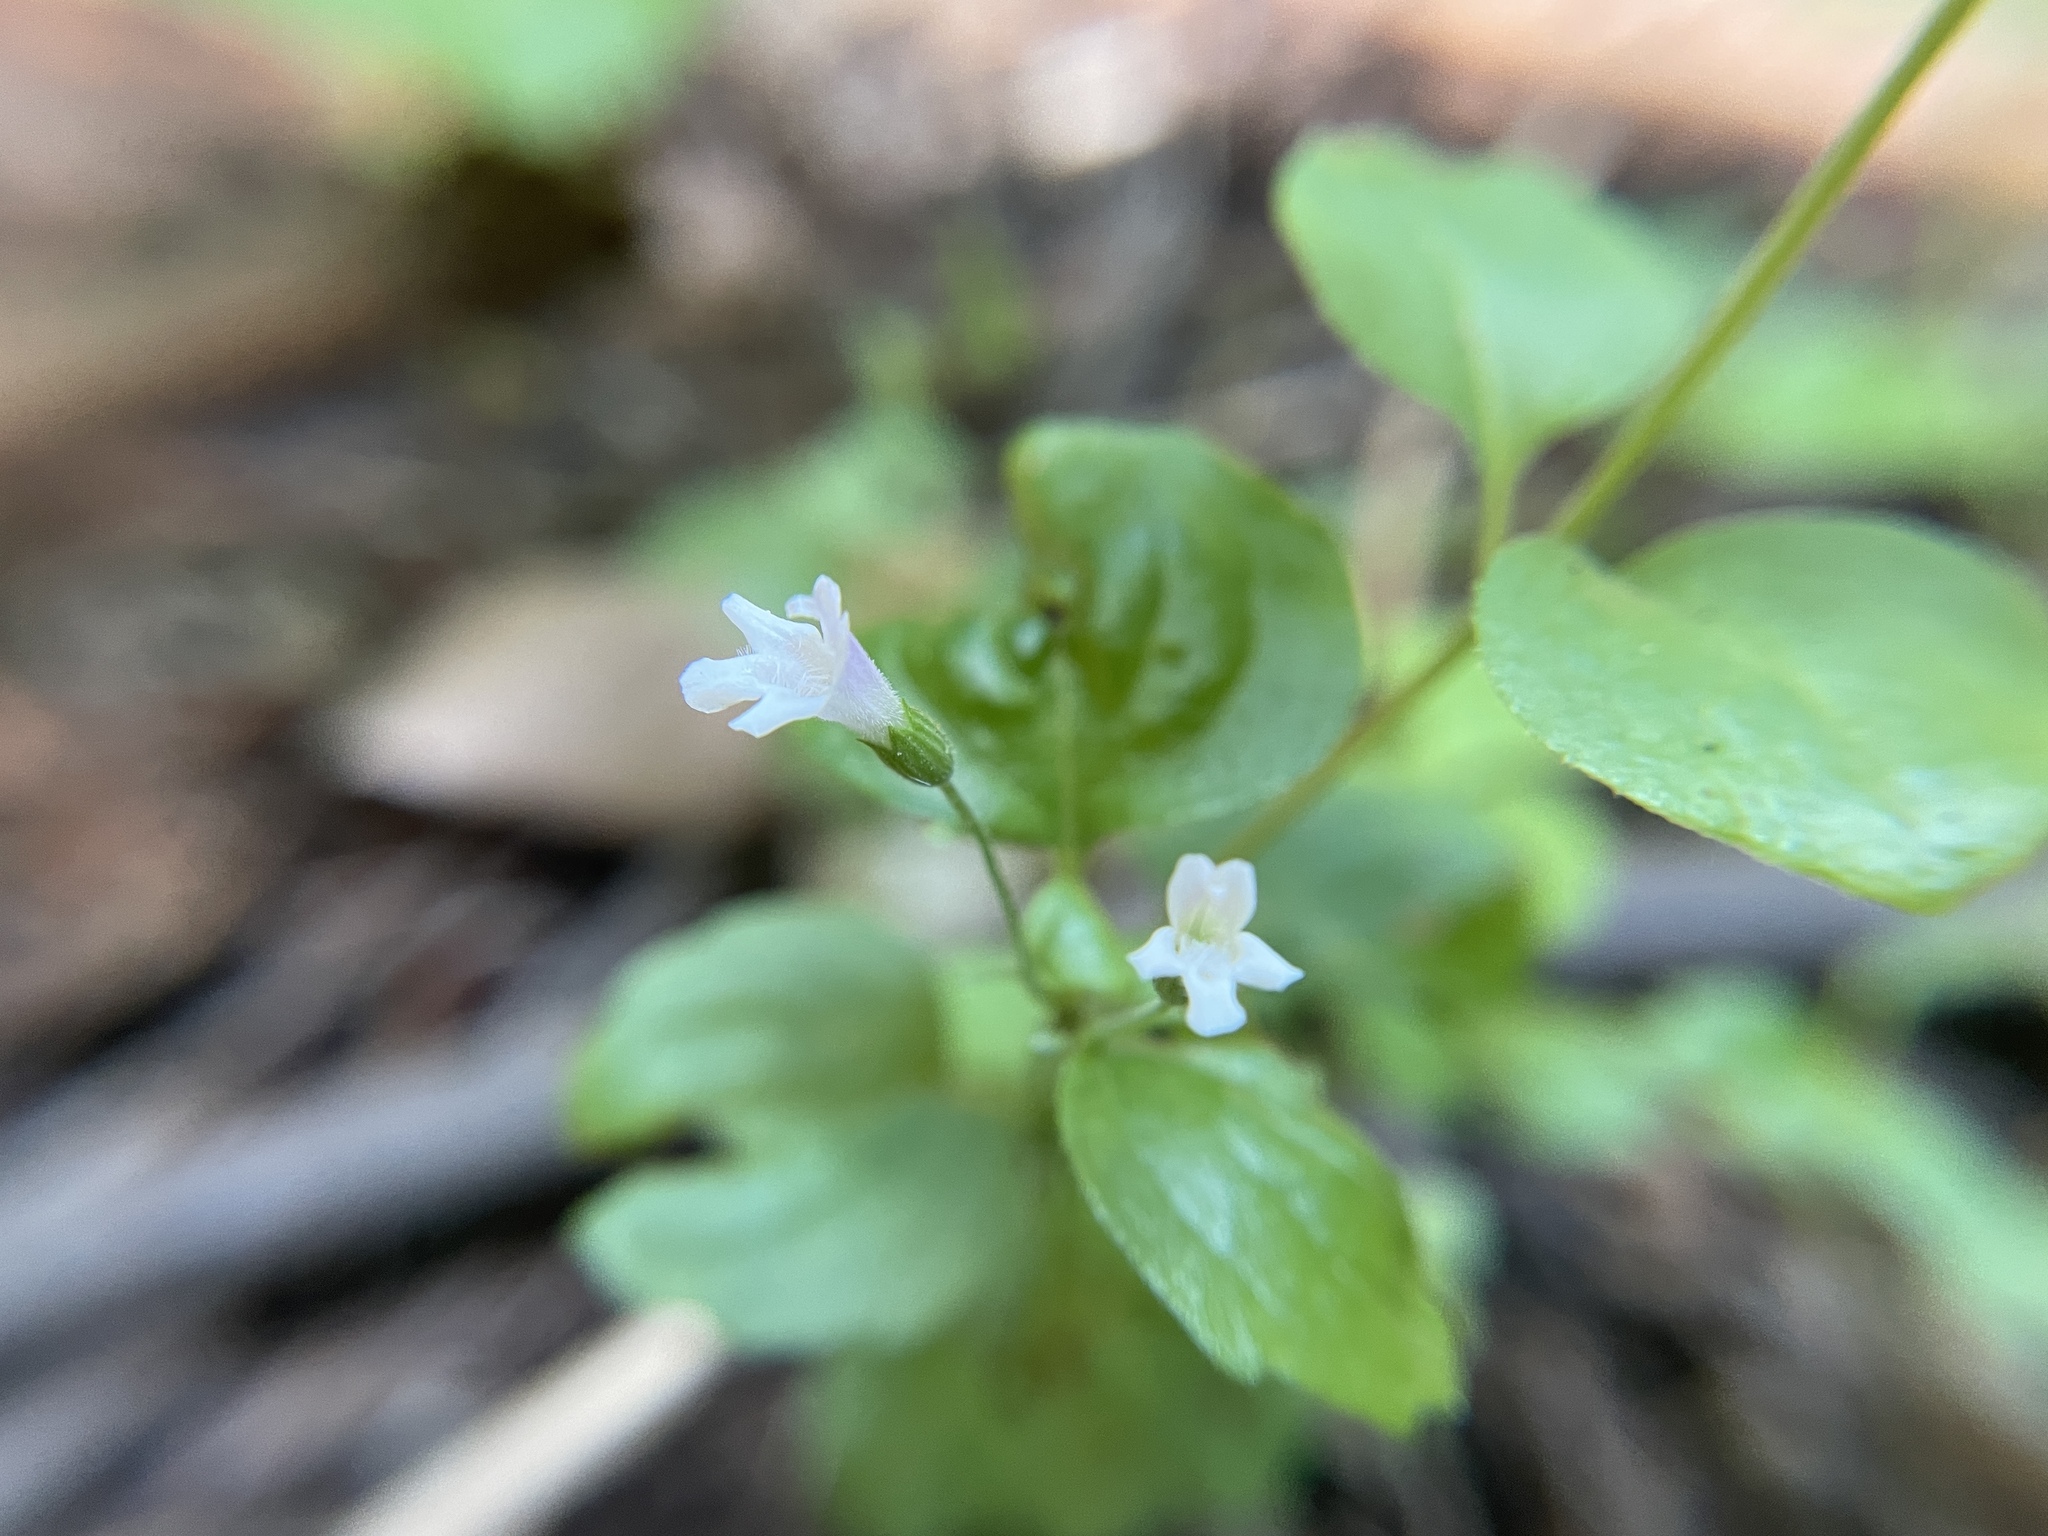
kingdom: Plantae
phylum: Tracheophyta
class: Magnoliopsida
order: Lamiales
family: Lamiaceae
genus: Micromeria
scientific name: Micromeria douglasii
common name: Yerba buena
